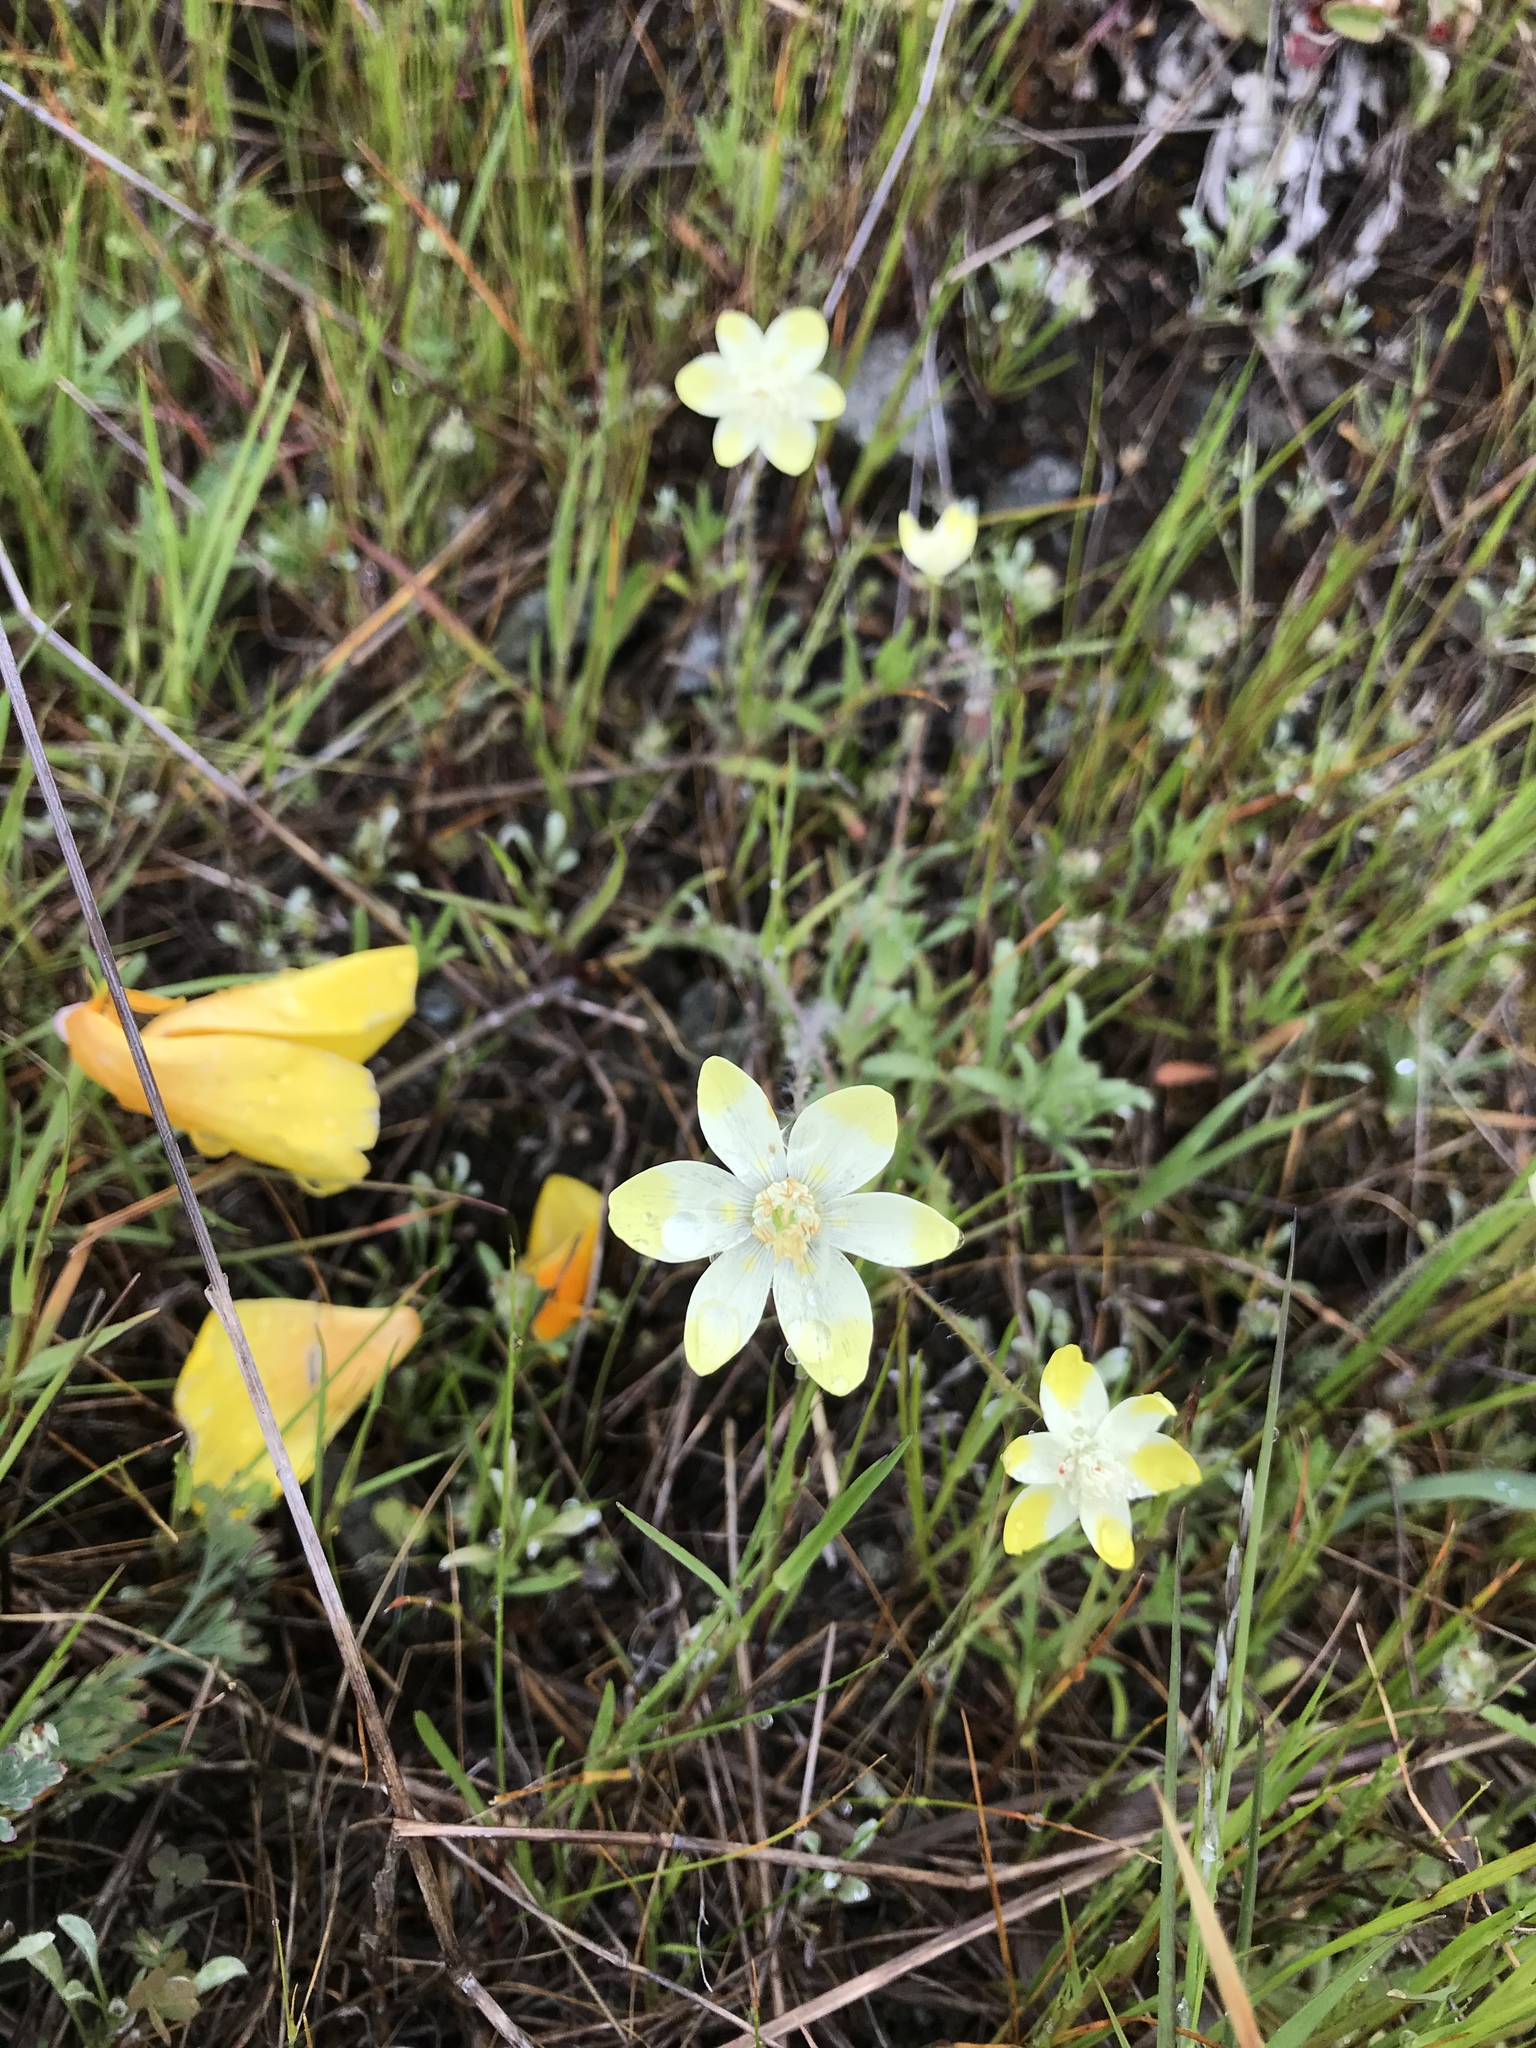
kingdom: Plantae
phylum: Tracheophyta
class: Magnoliopsida
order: Ranunculales
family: Papaveraceae
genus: Platystemon
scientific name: Platystemon californicus
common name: Cream-cups
